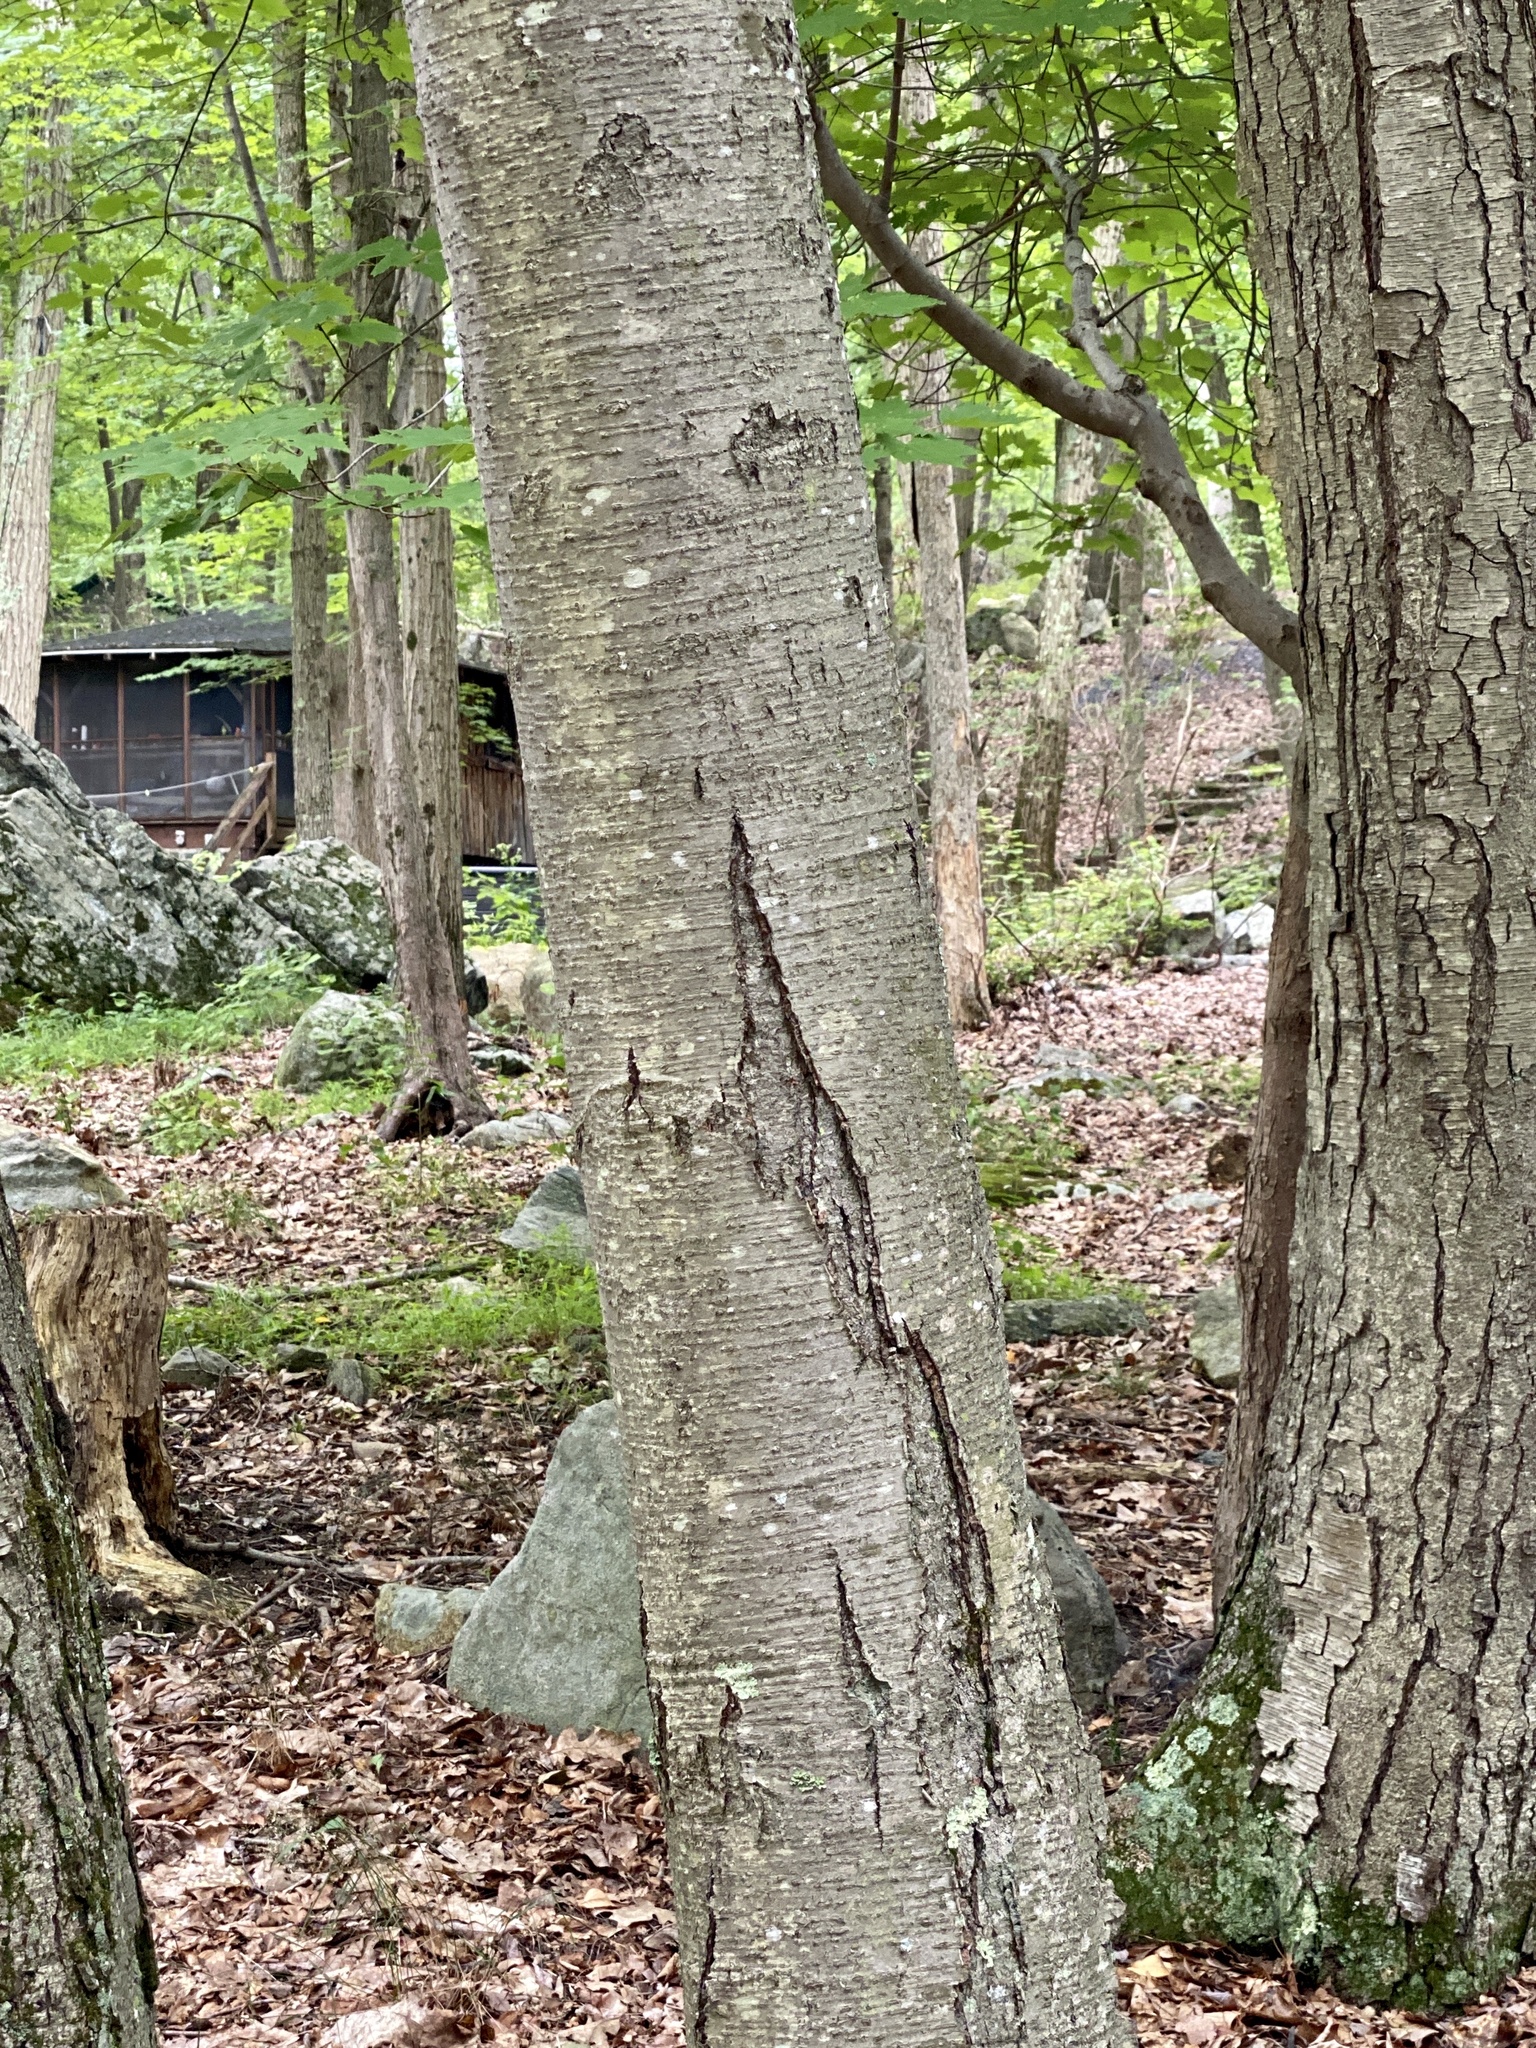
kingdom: Plantae
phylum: Tracheophyta
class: Magnoliopsida
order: Fagales
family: Betulaceae
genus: Betula
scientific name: Betula lenta
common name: Black birch
